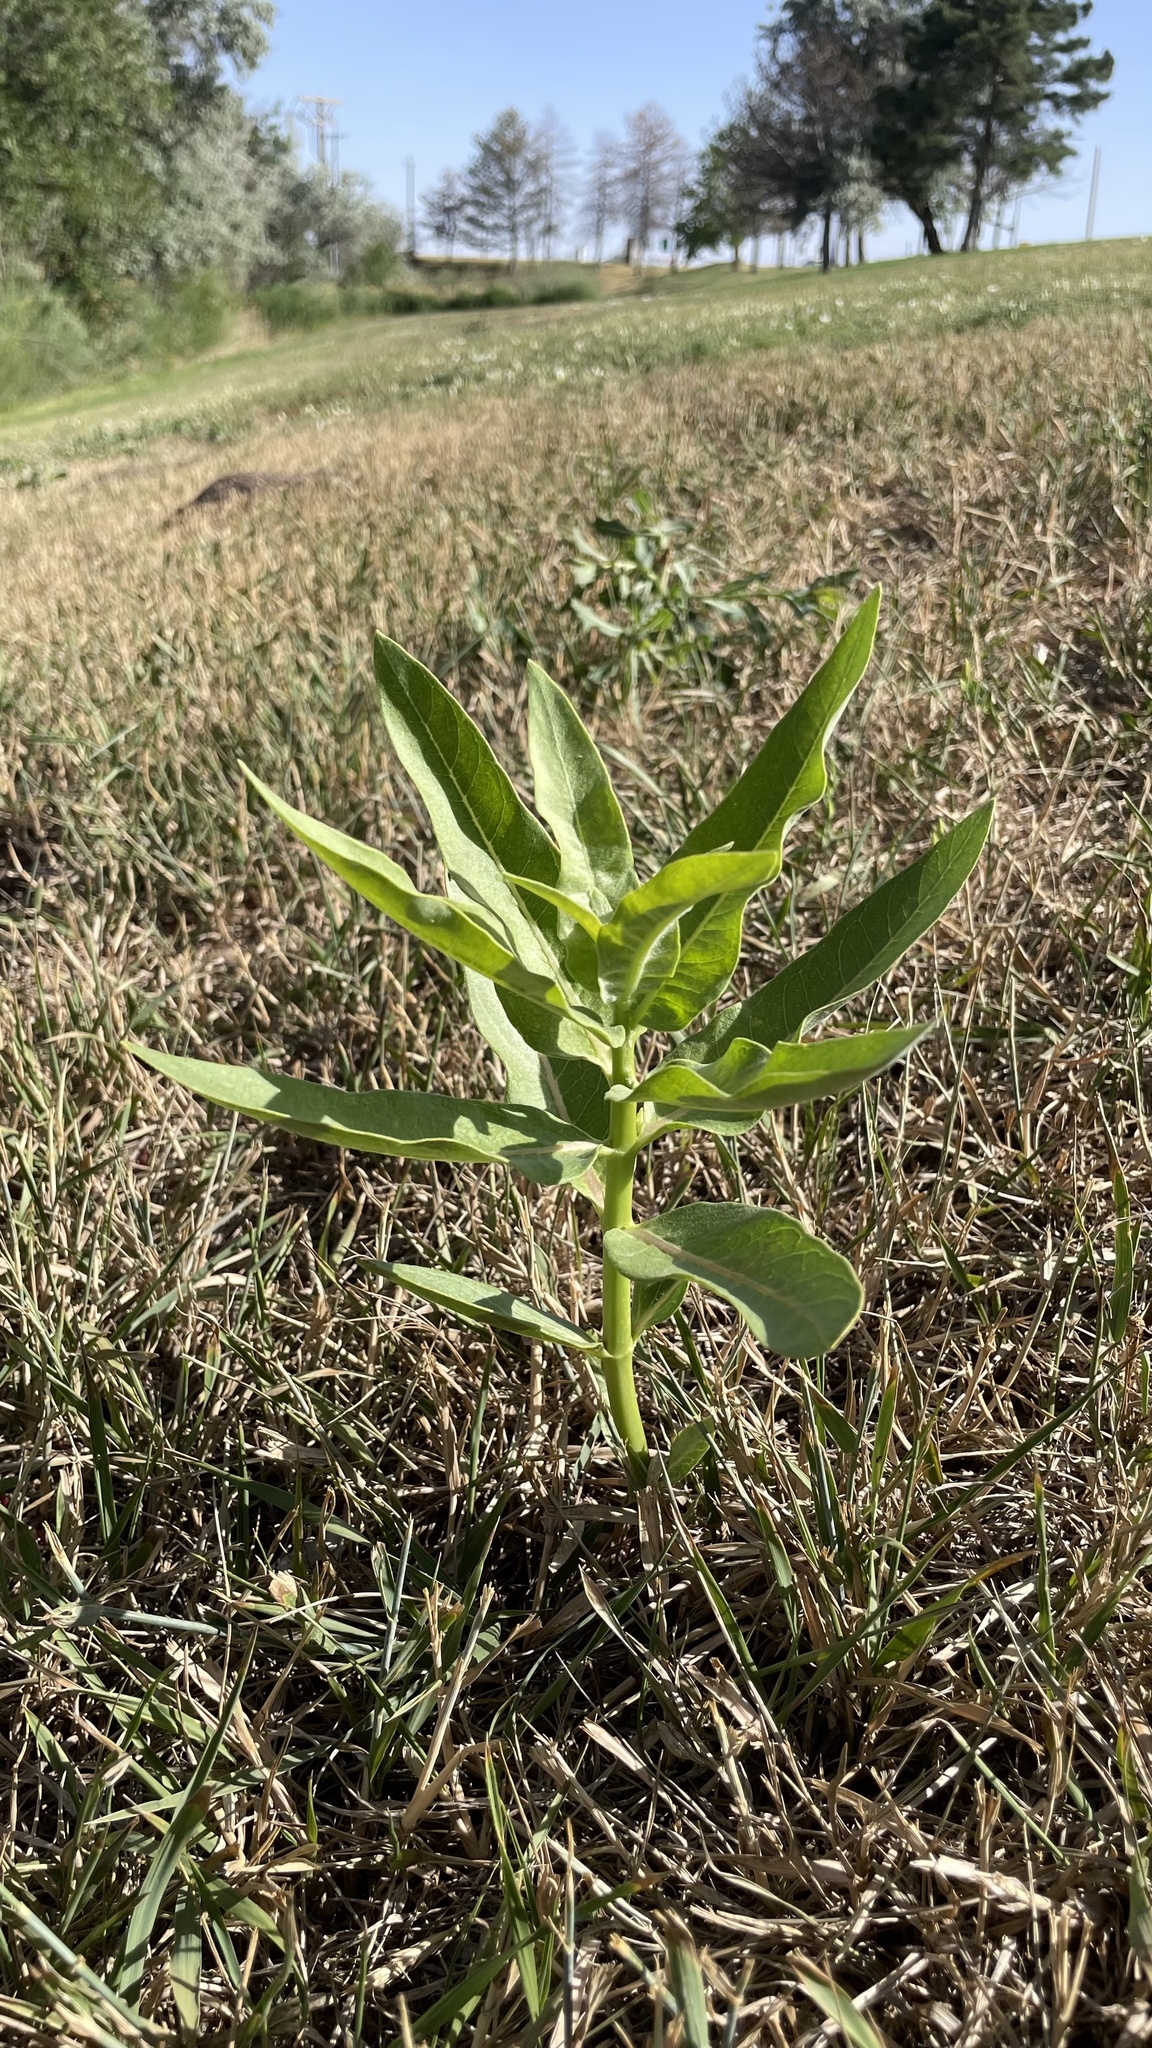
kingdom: Plantae
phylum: Tracheophyta
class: Magnoliopsida
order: Gentianales
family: Apocynaceae
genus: Asclepias
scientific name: Asclepias speciosa
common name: Showy milkweed
